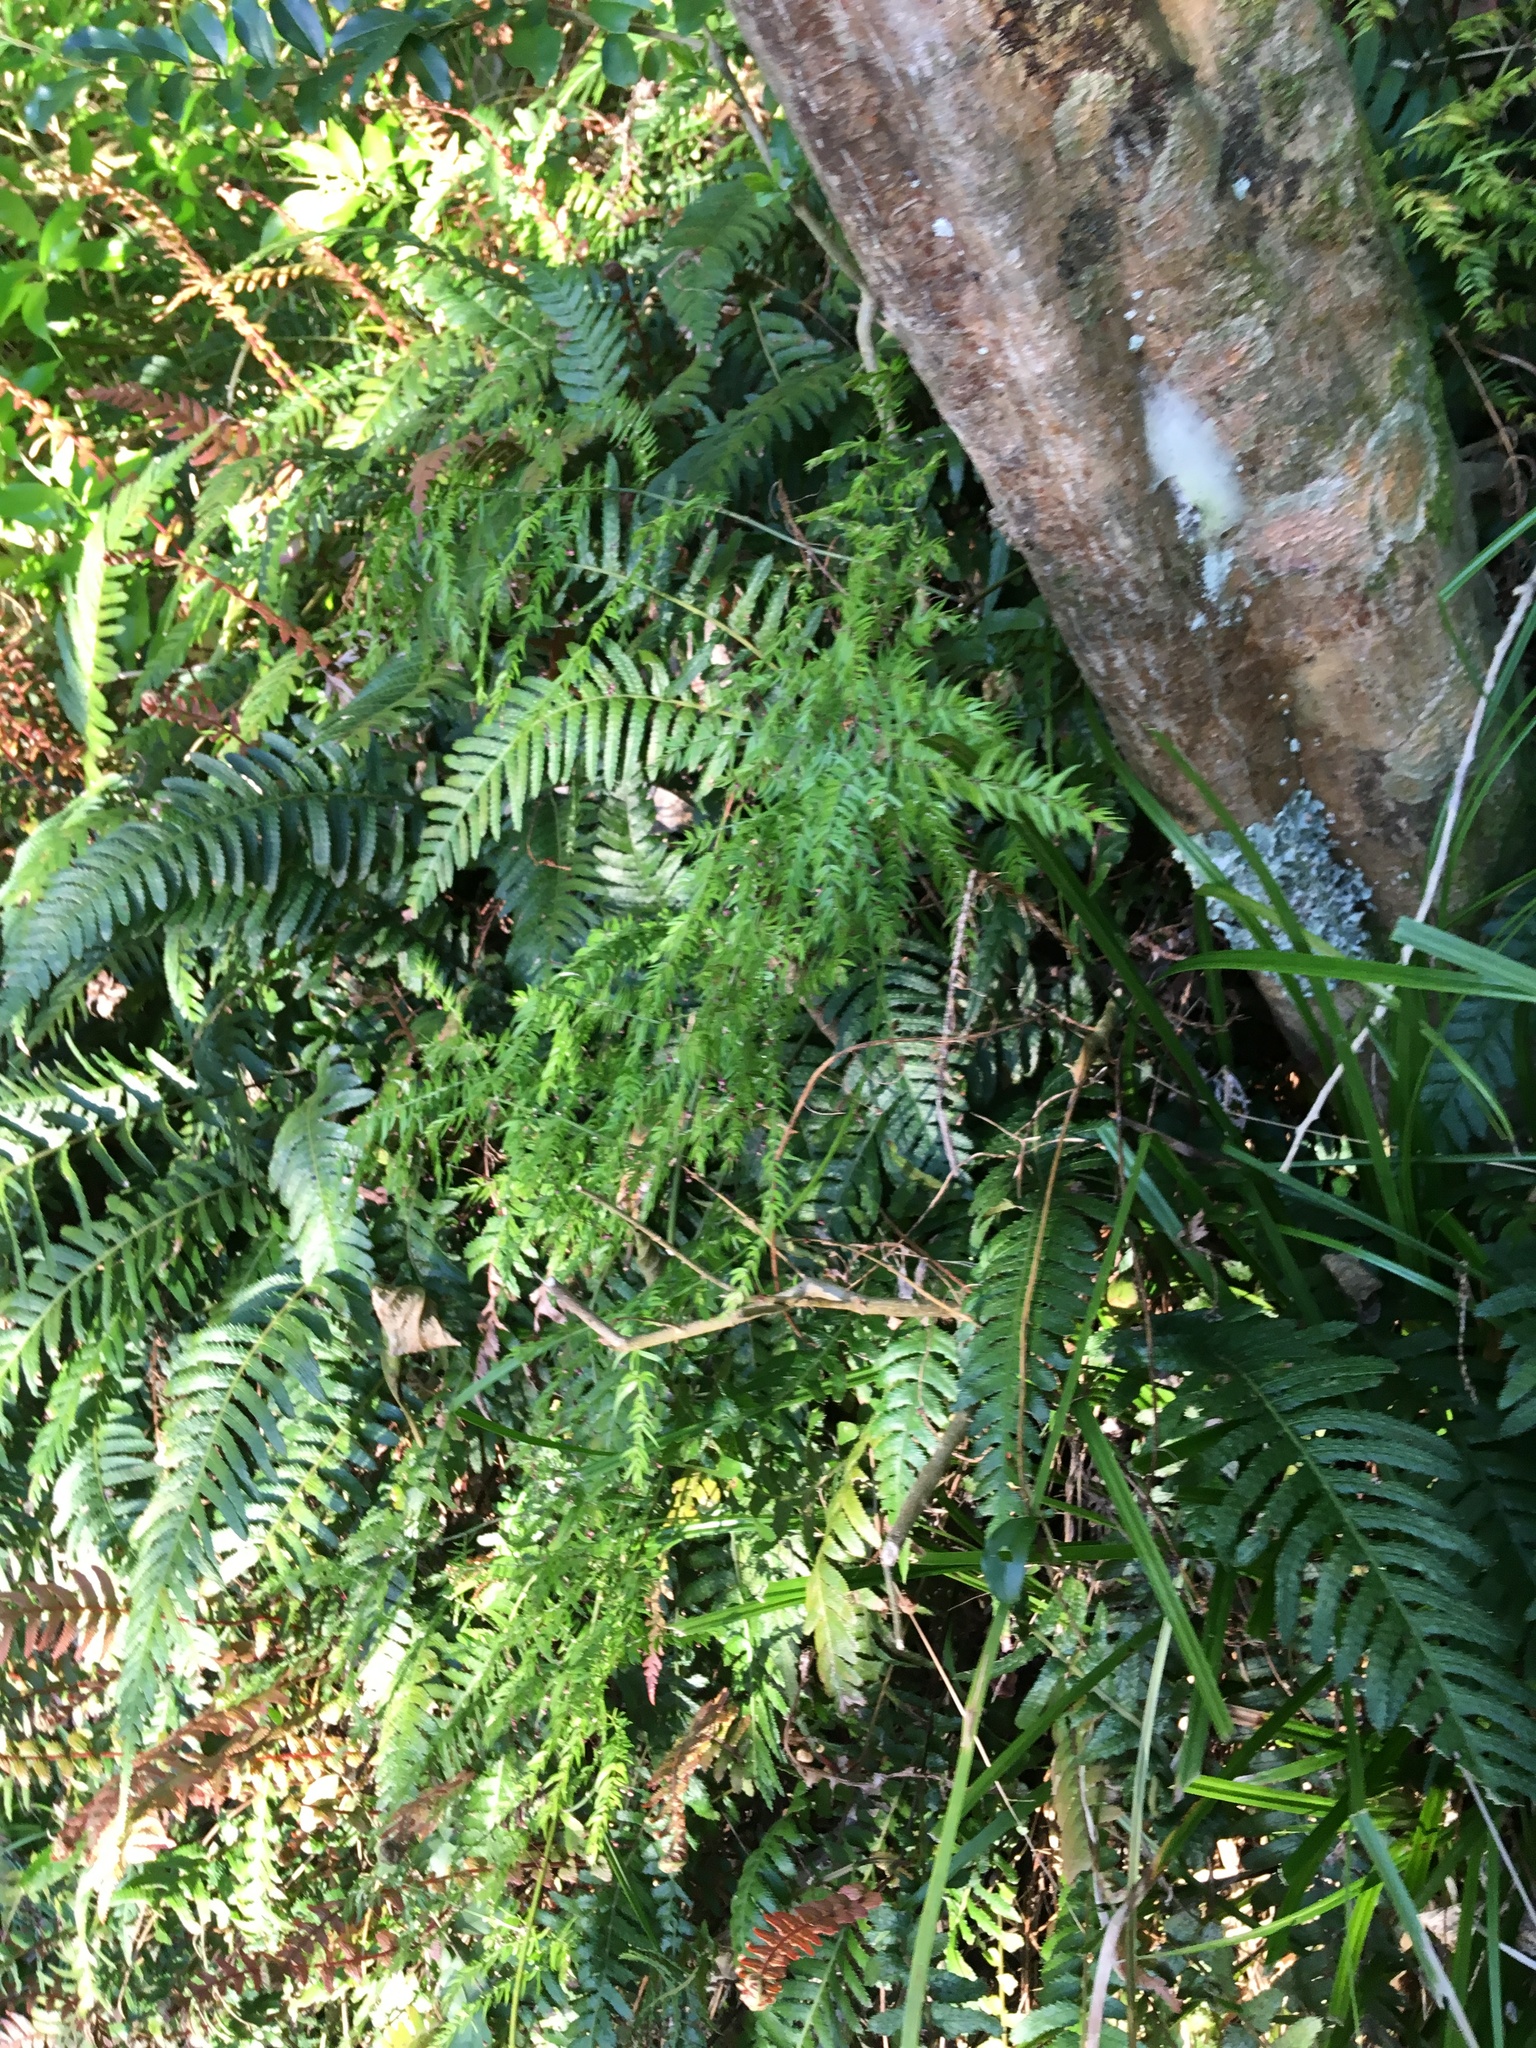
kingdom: Plantae
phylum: Tracheophyta
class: Polypodiopsida
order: Polypodiales
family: Blechnaceae
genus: Doodia
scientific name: Doodia australis
